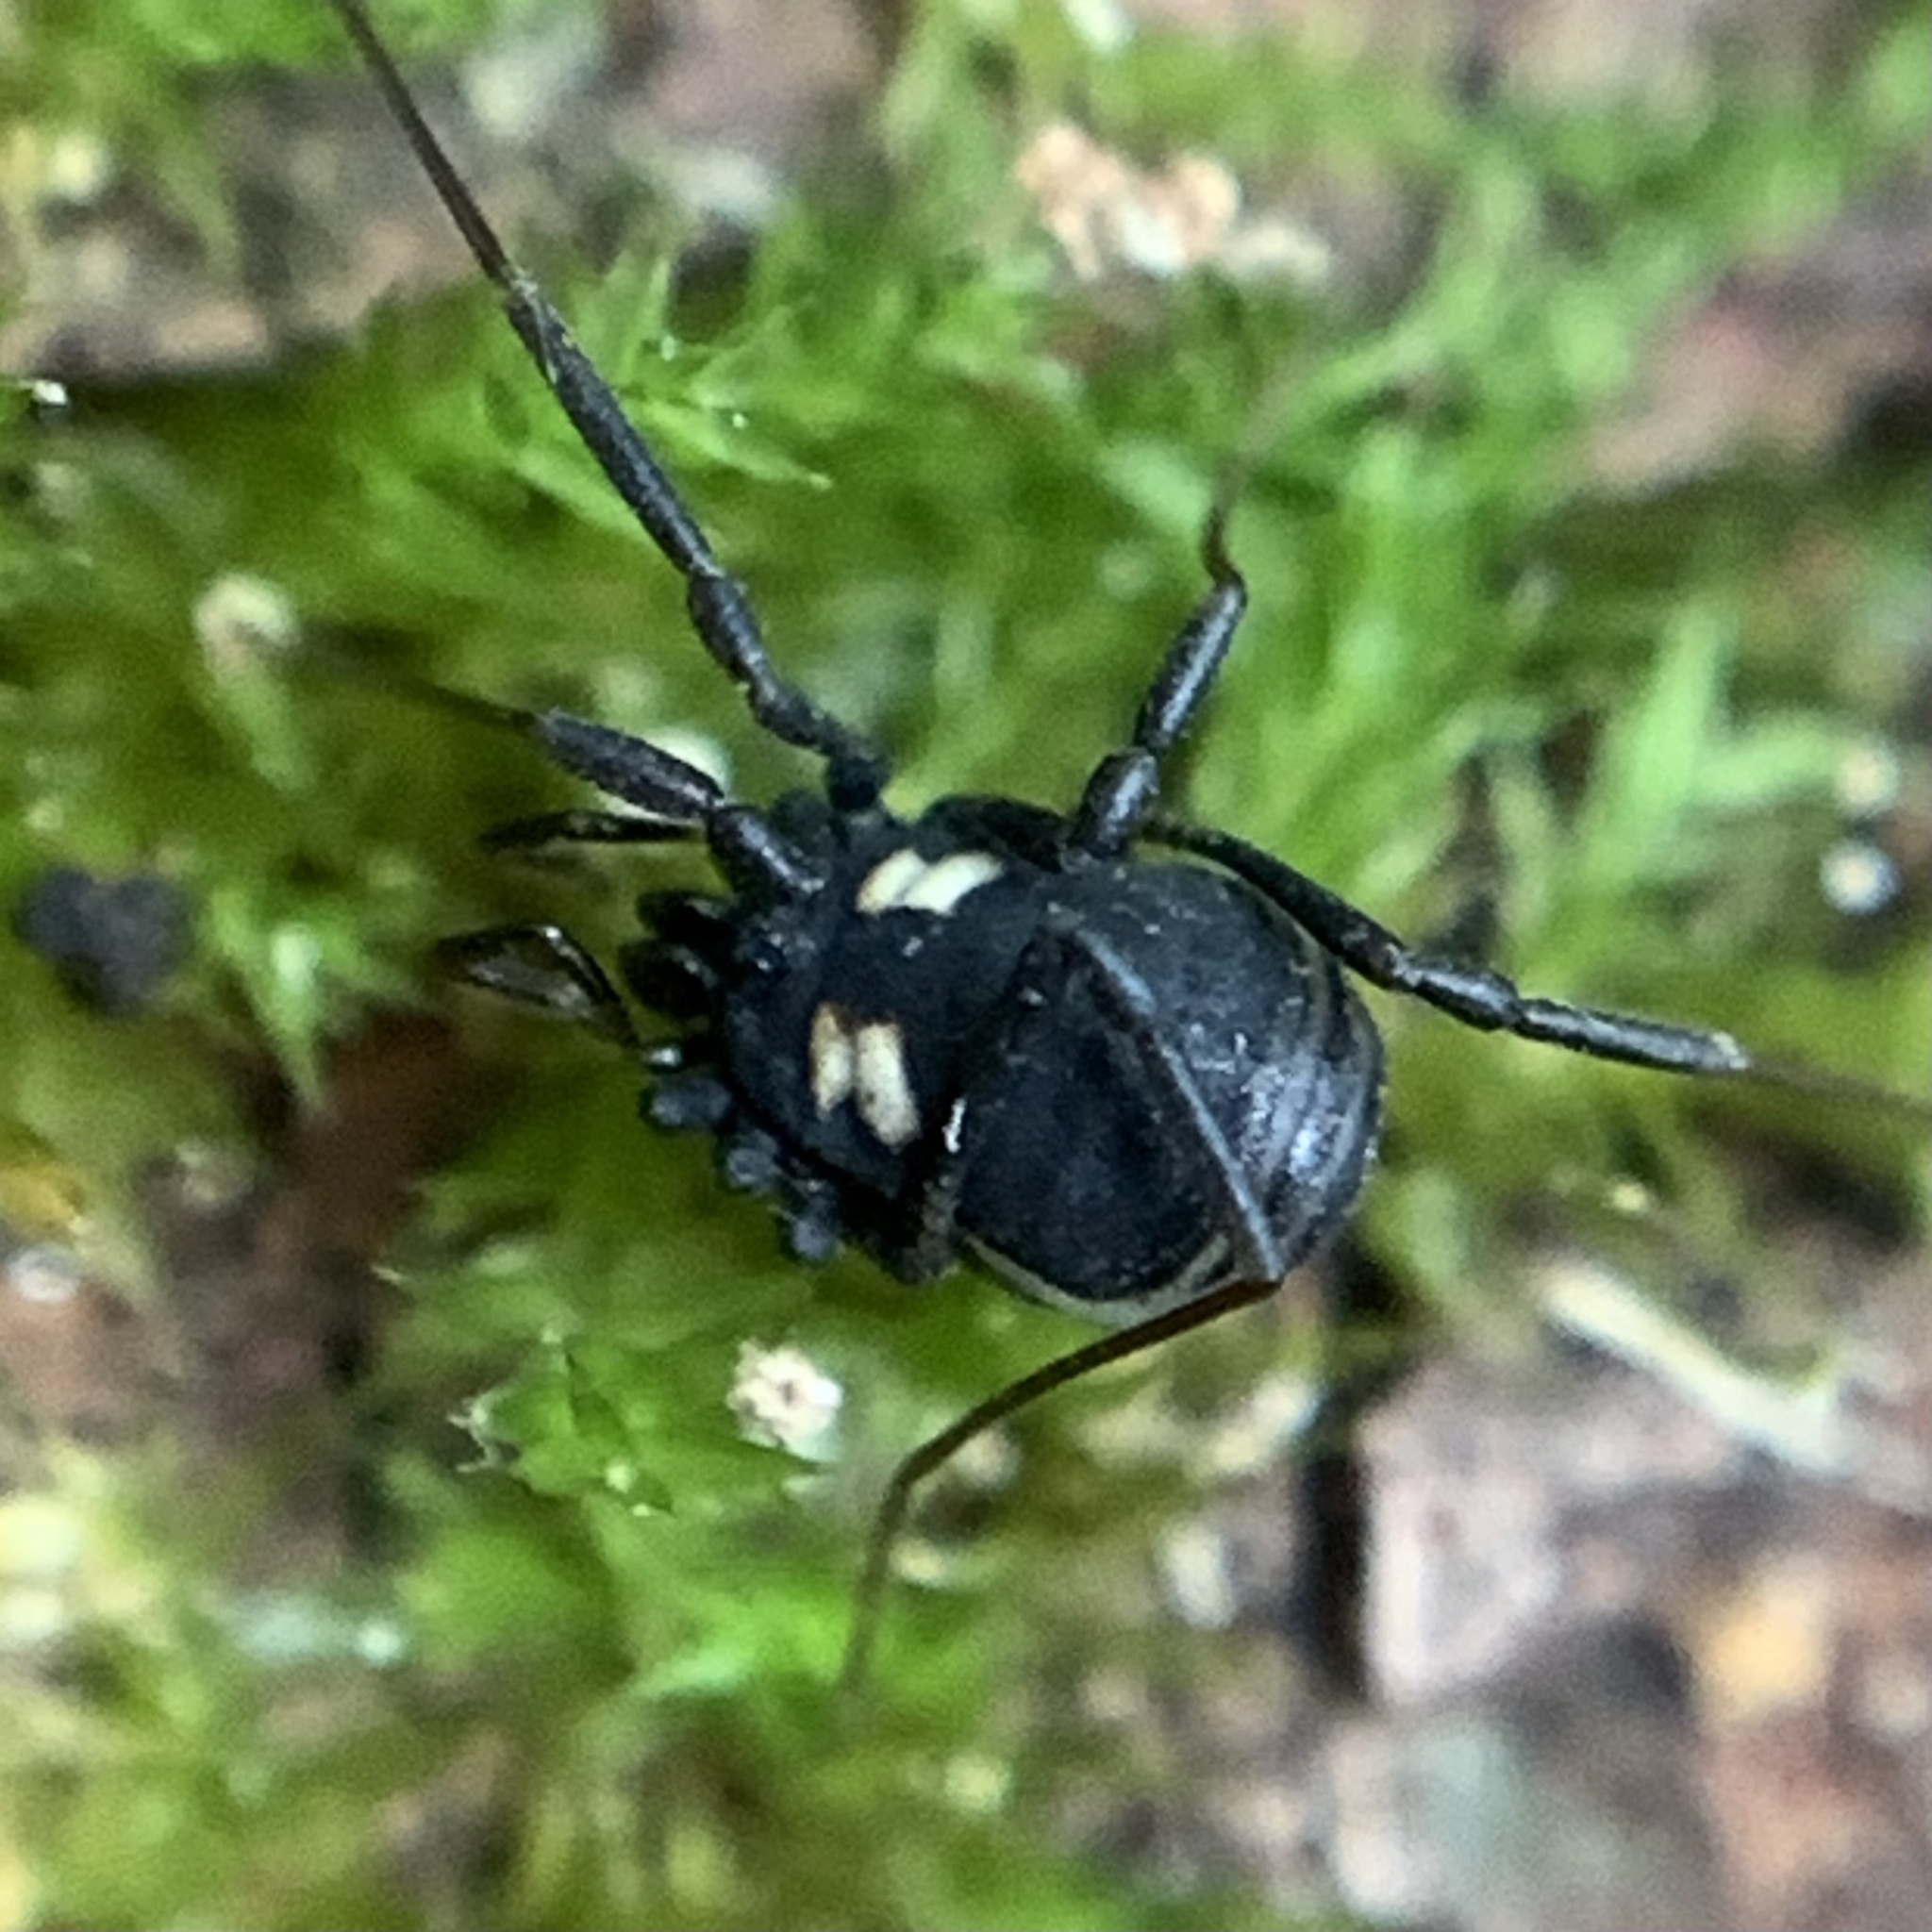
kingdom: Animalia
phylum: Arthropoda
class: Arachnida
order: Opiliones
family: Nemastomatidae
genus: Nemastoma
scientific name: Nemastoma bimaculatum
